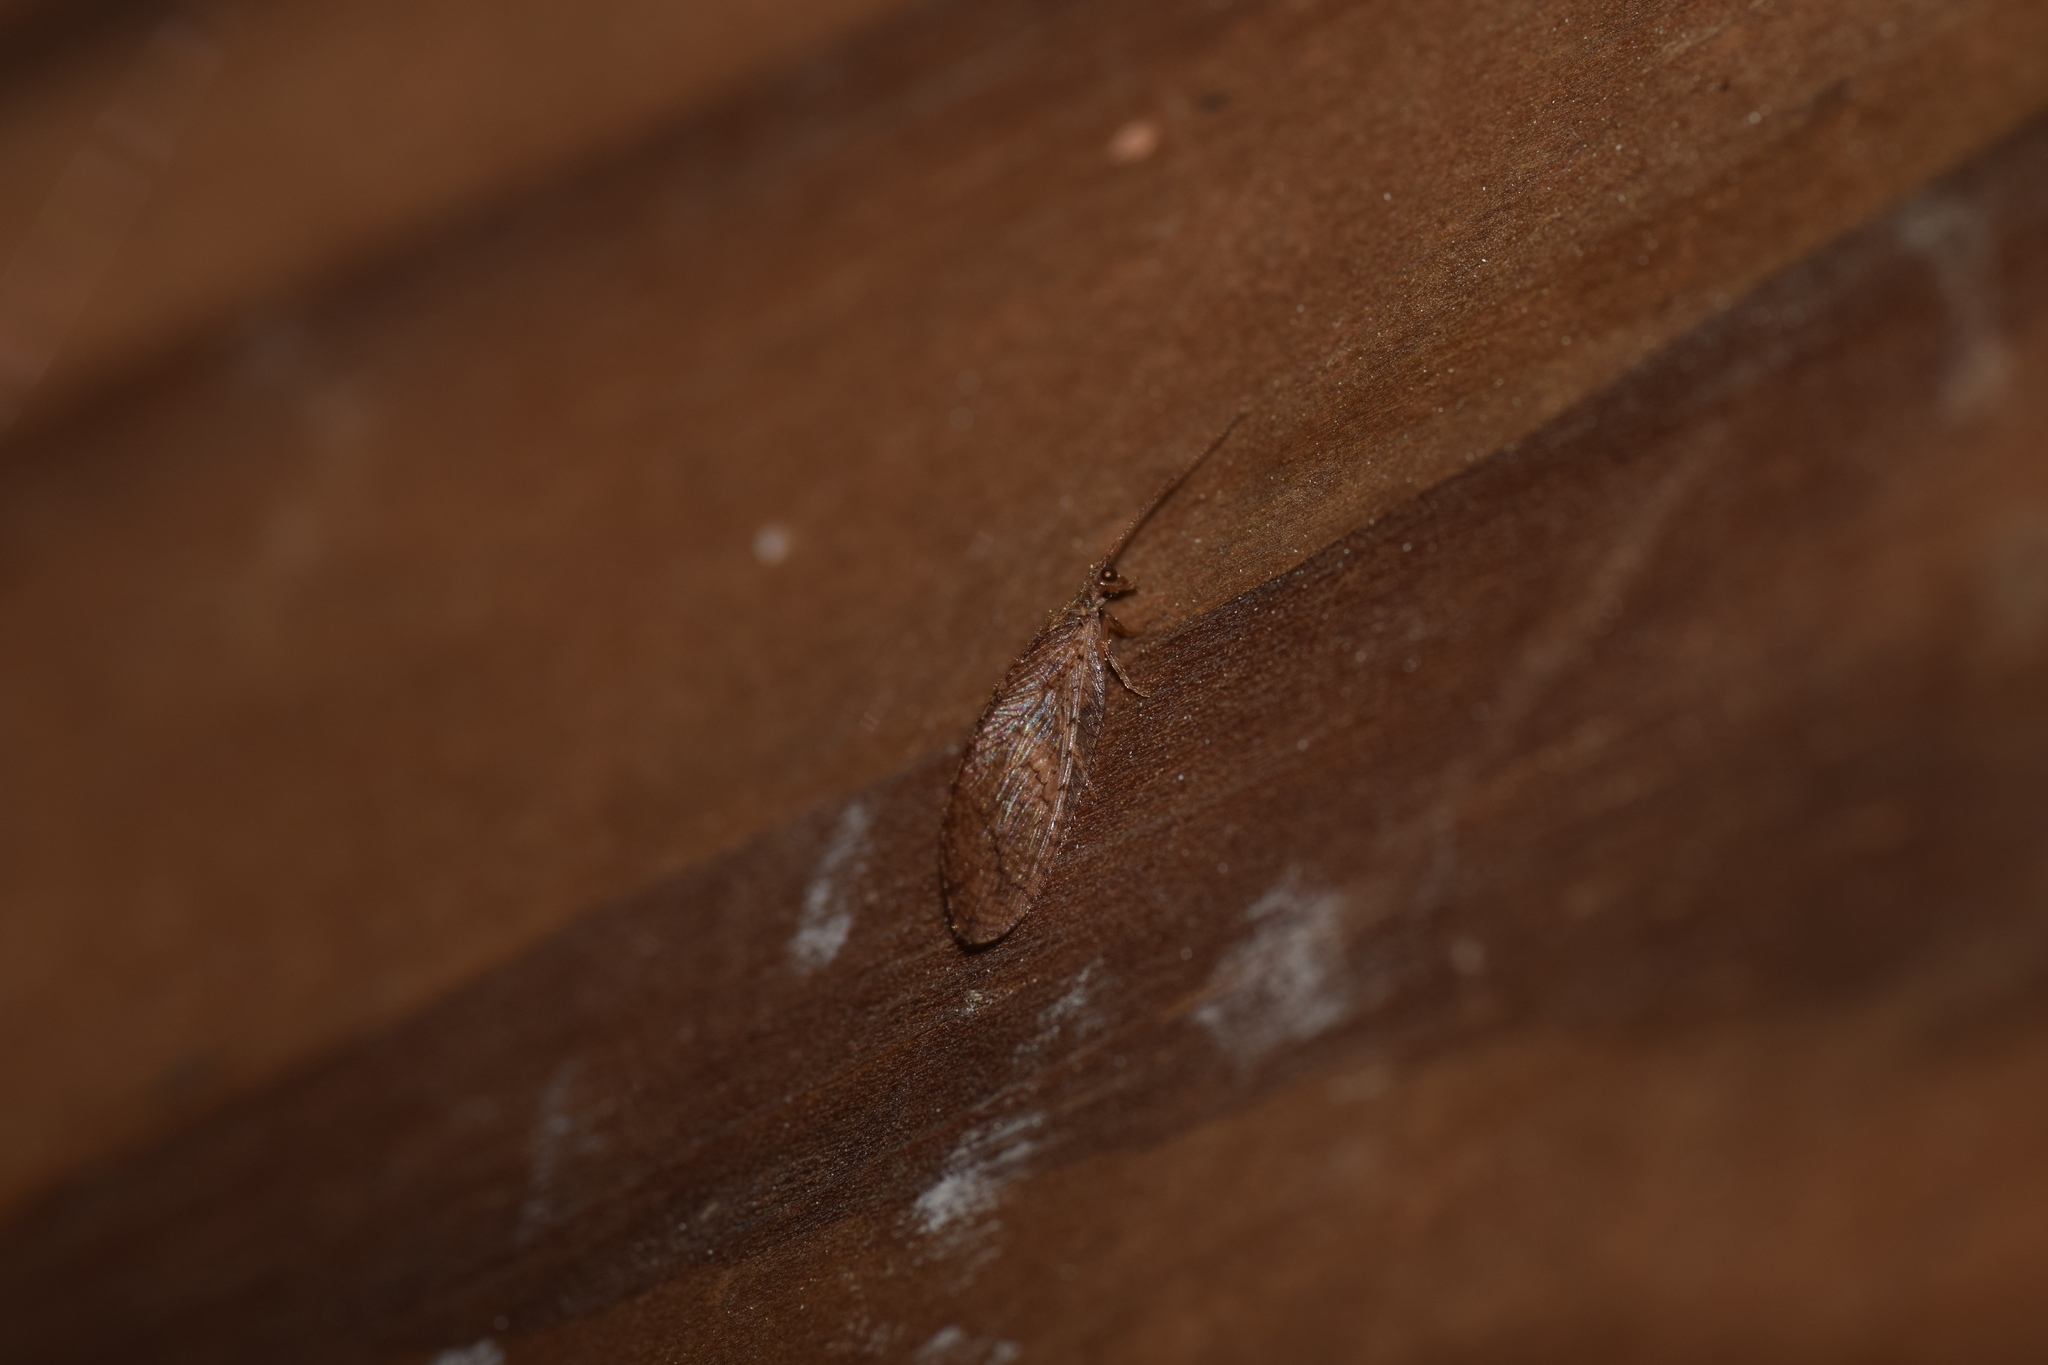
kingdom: Animalia
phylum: Arthropoda
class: Insecta
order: Neuroptera
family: Hemerobiidae
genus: Micromus
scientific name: Micromus posticus
